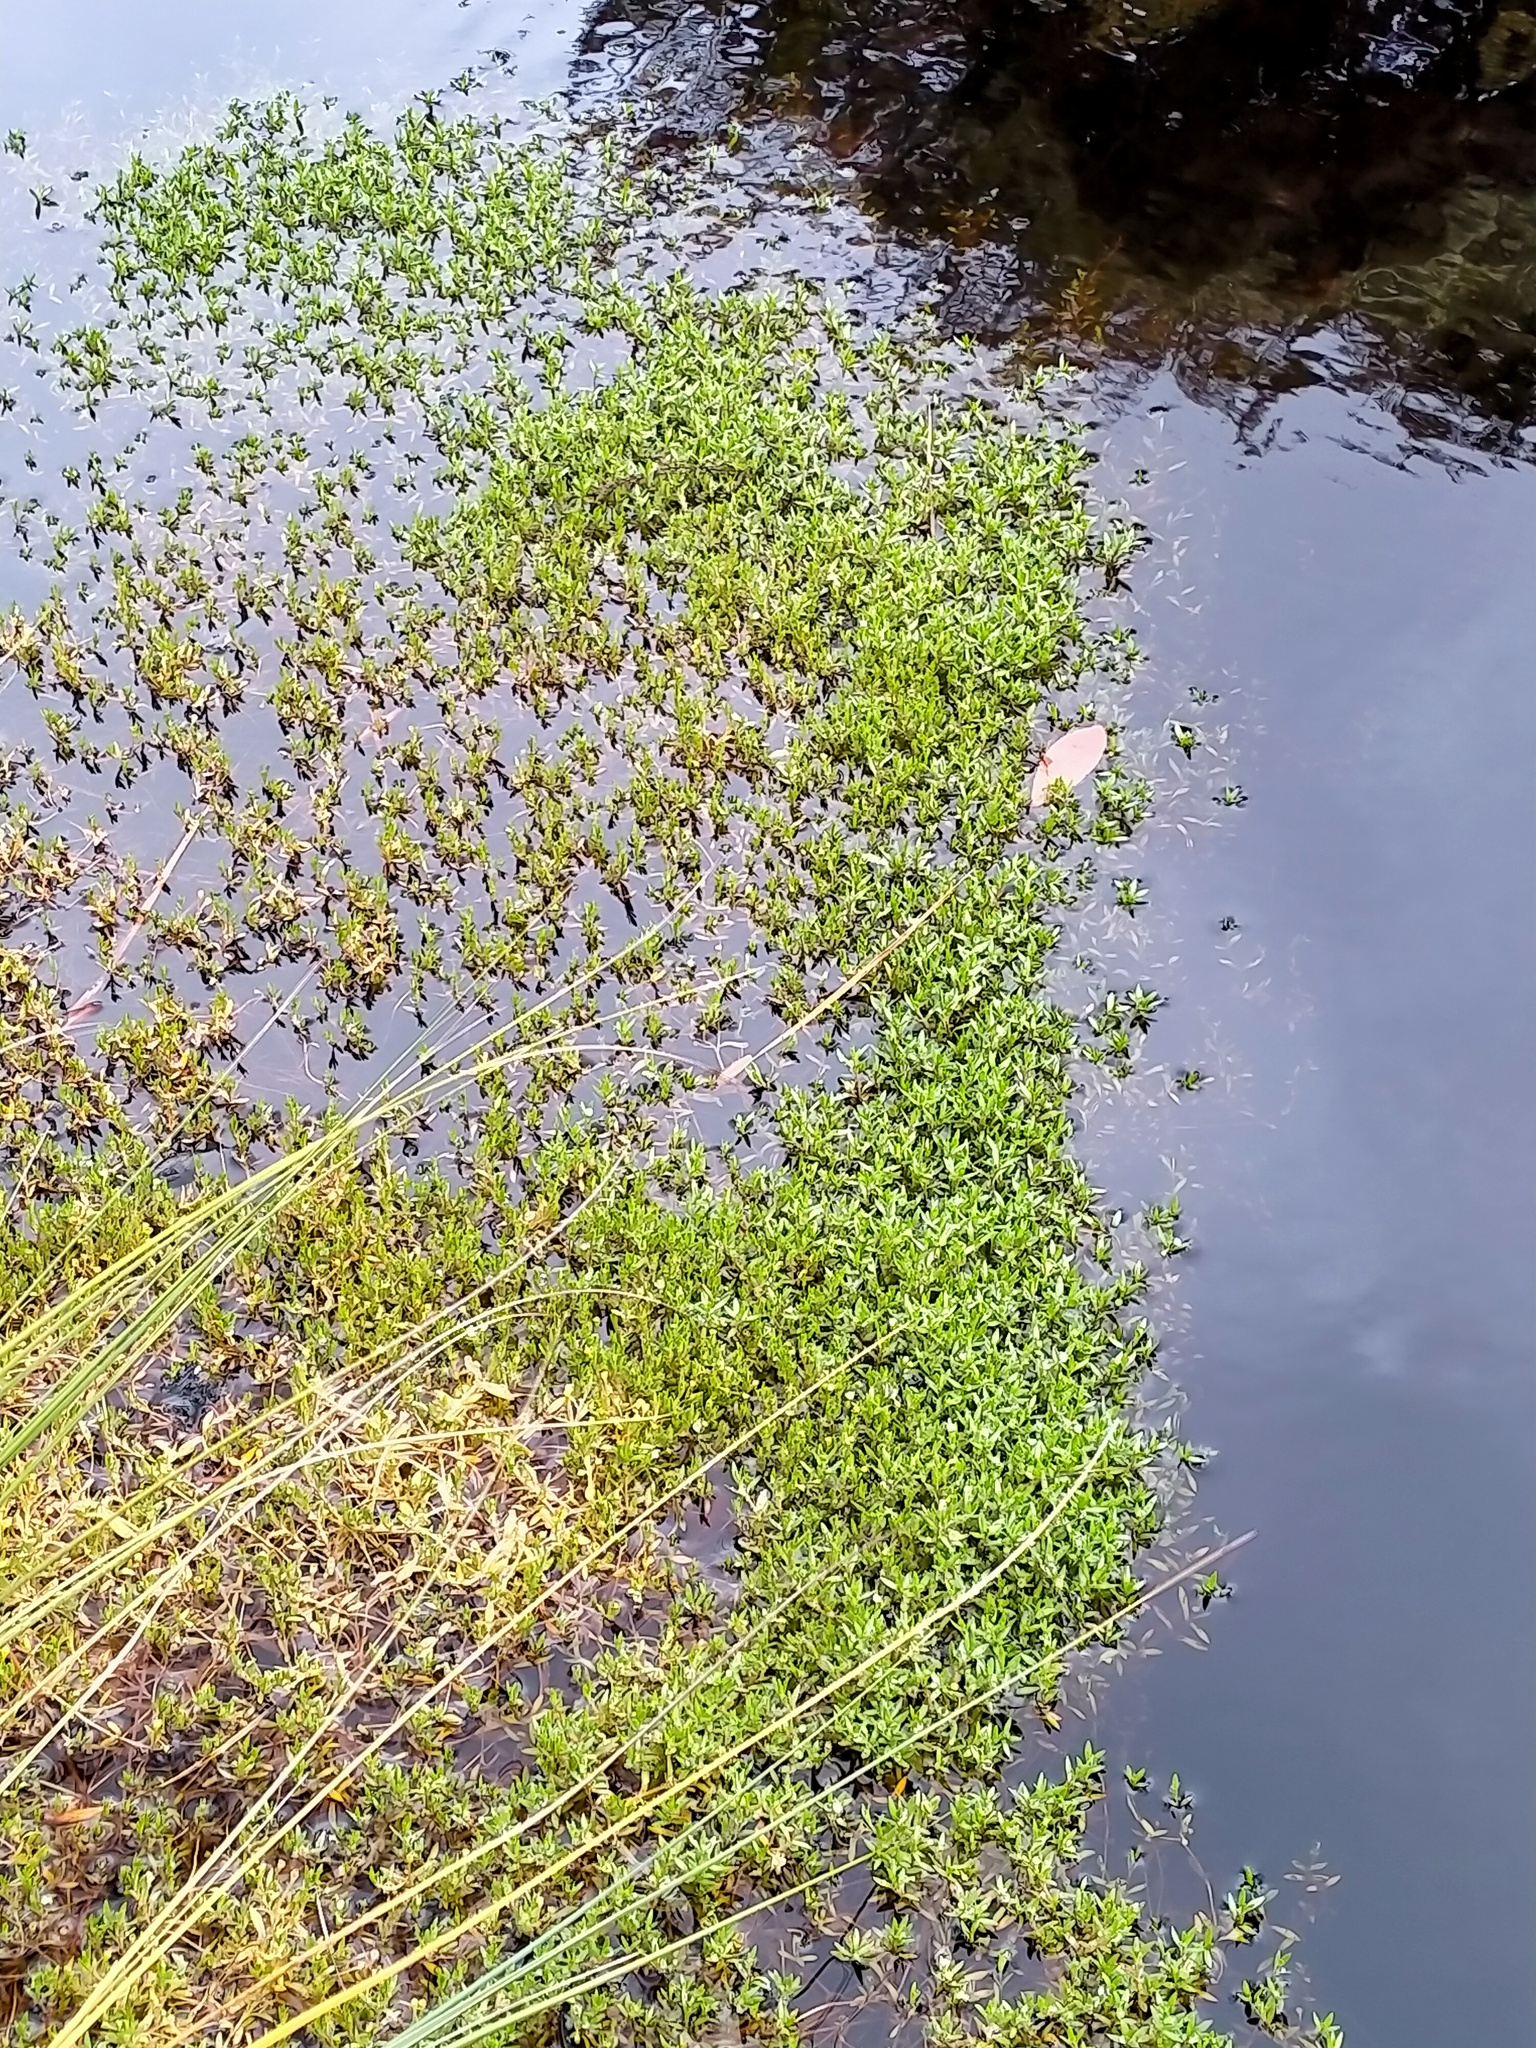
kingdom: Plantae
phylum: Tracheophyta
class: Magnoliopsida
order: Caryophyllales
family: Montiaceae
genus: Montia
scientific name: Montia fontana
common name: Blinks
